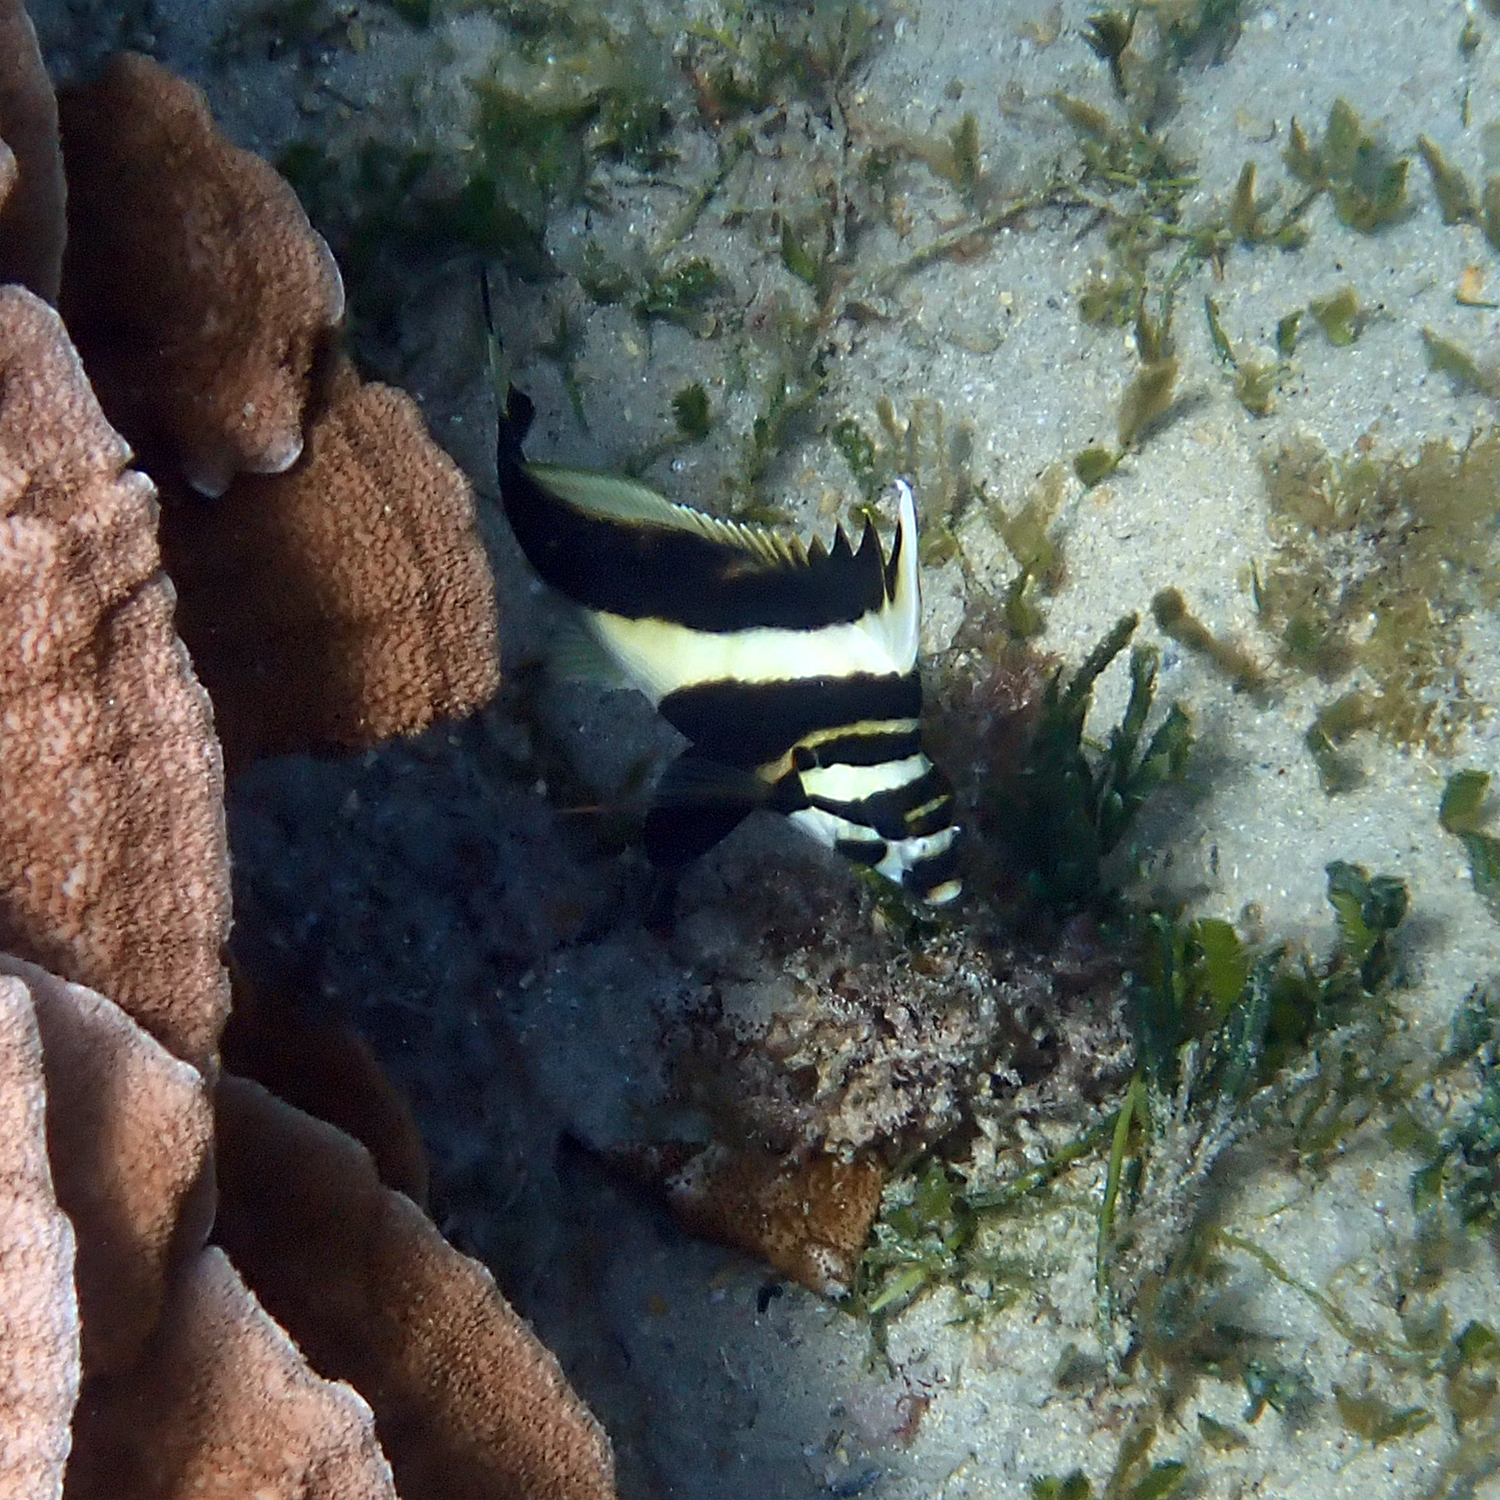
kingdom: Animalia
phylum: Chordata
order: Perciformes
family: Cheilodactylidae
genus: Cheilodactylus
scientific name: Cheilodactylus francisi
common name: Blacktip morwong
